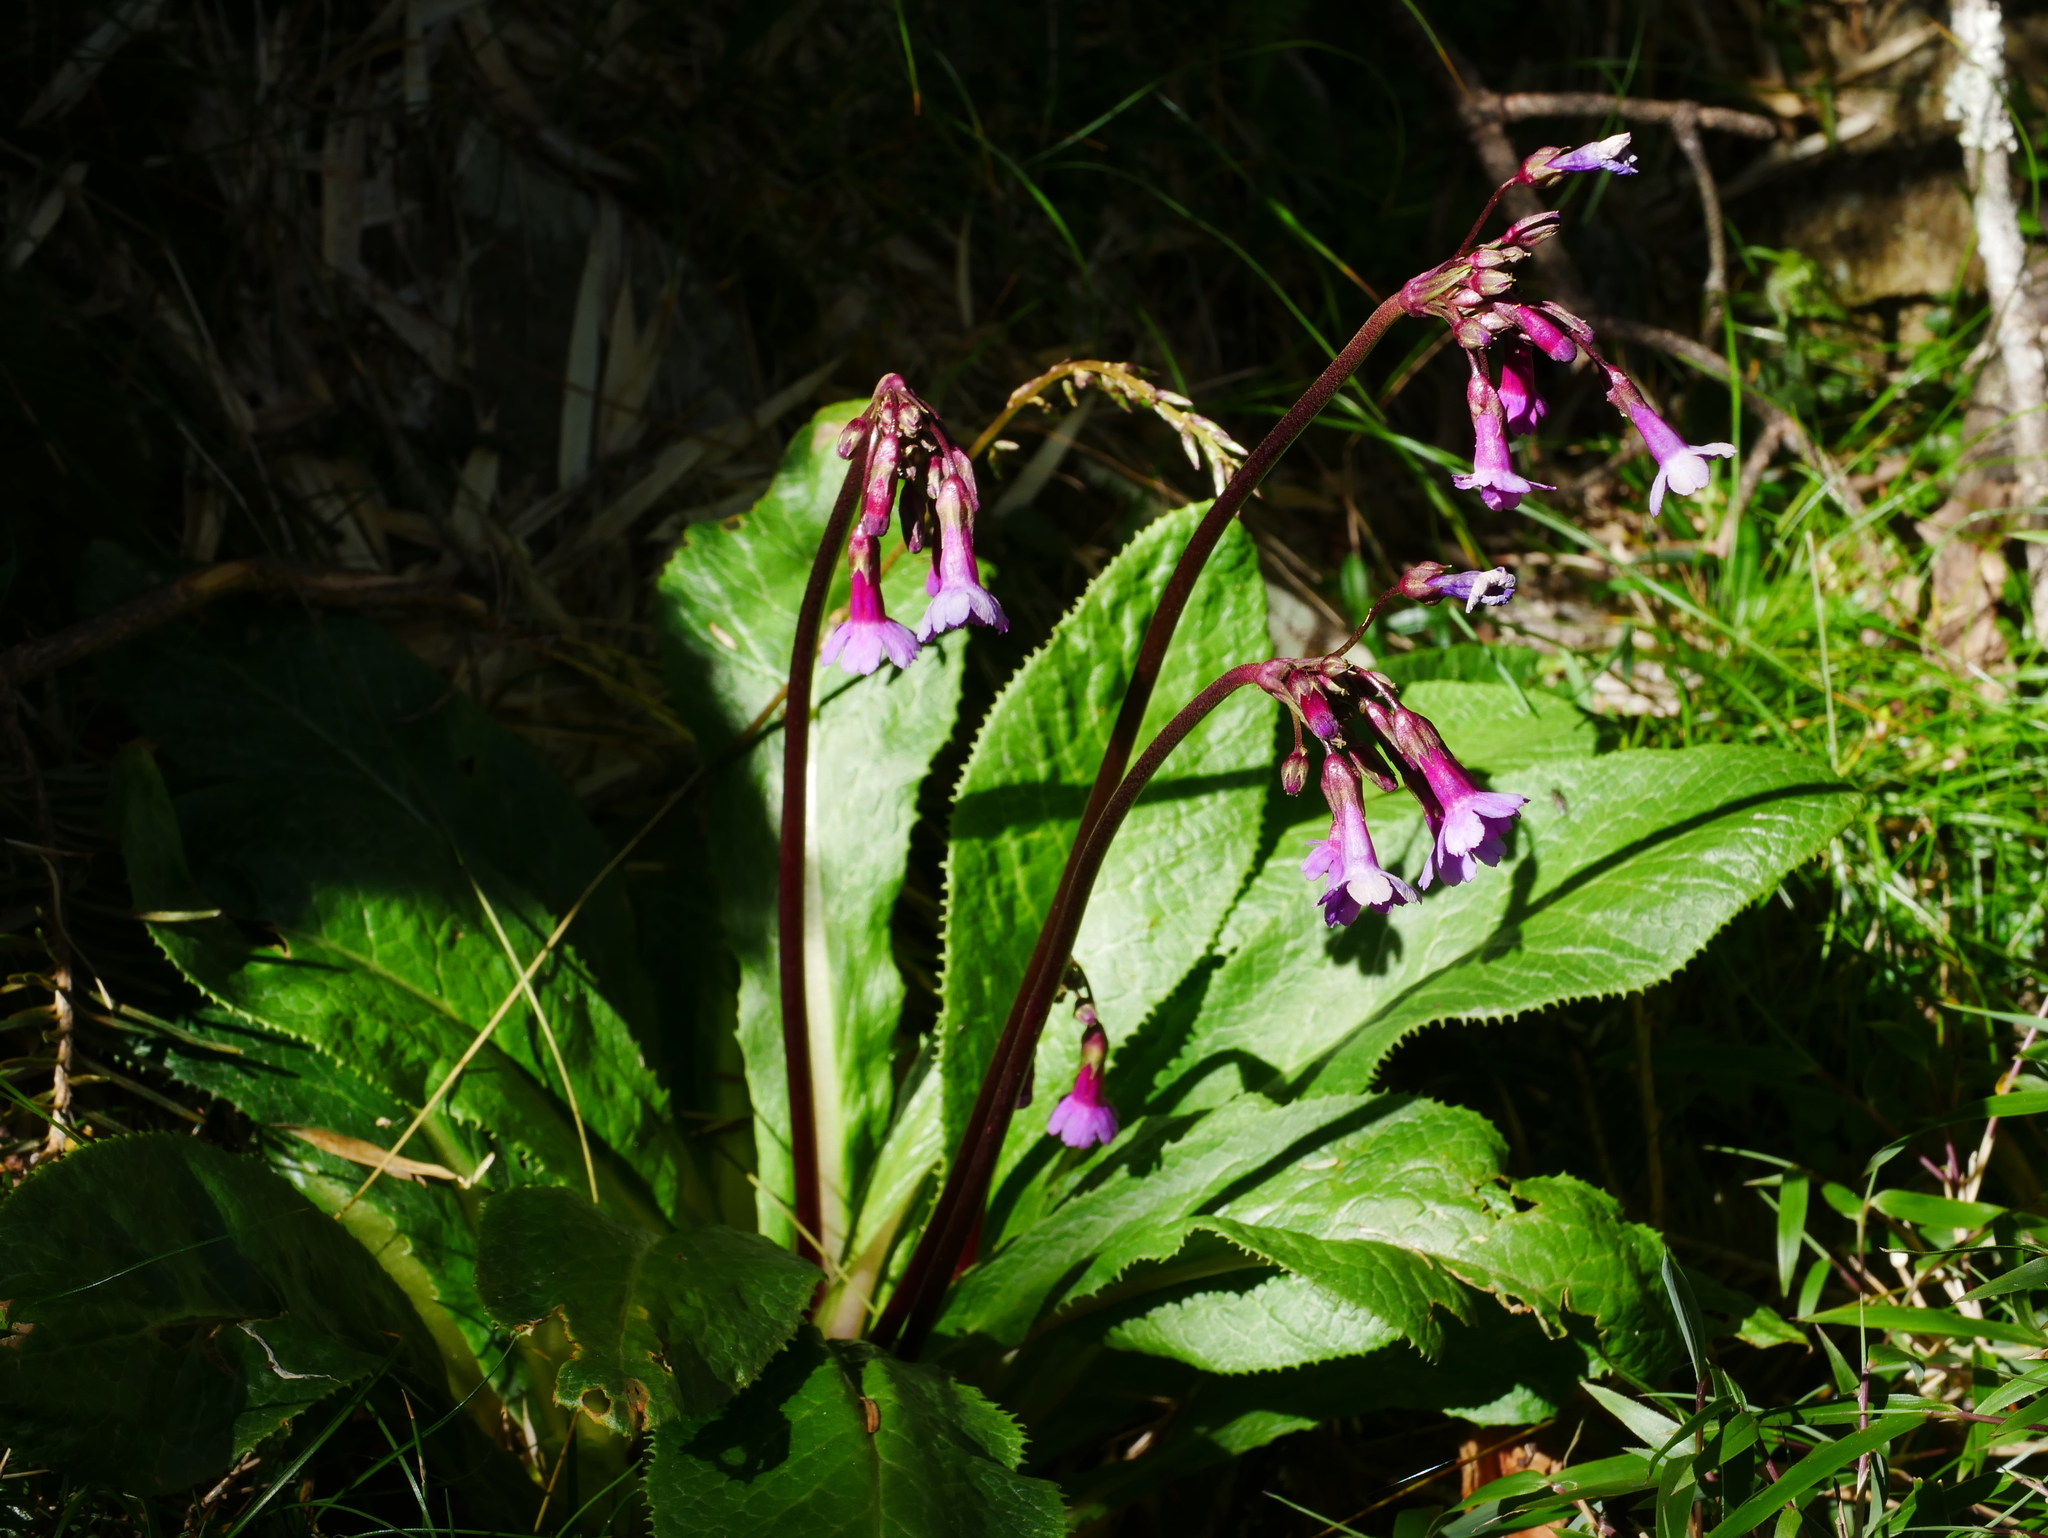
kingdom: Plantae
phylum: Tracheophyta
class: Magnoliopsida
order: Ericales
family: Primulaceae
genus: Primula
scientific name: Primula miyabeana
